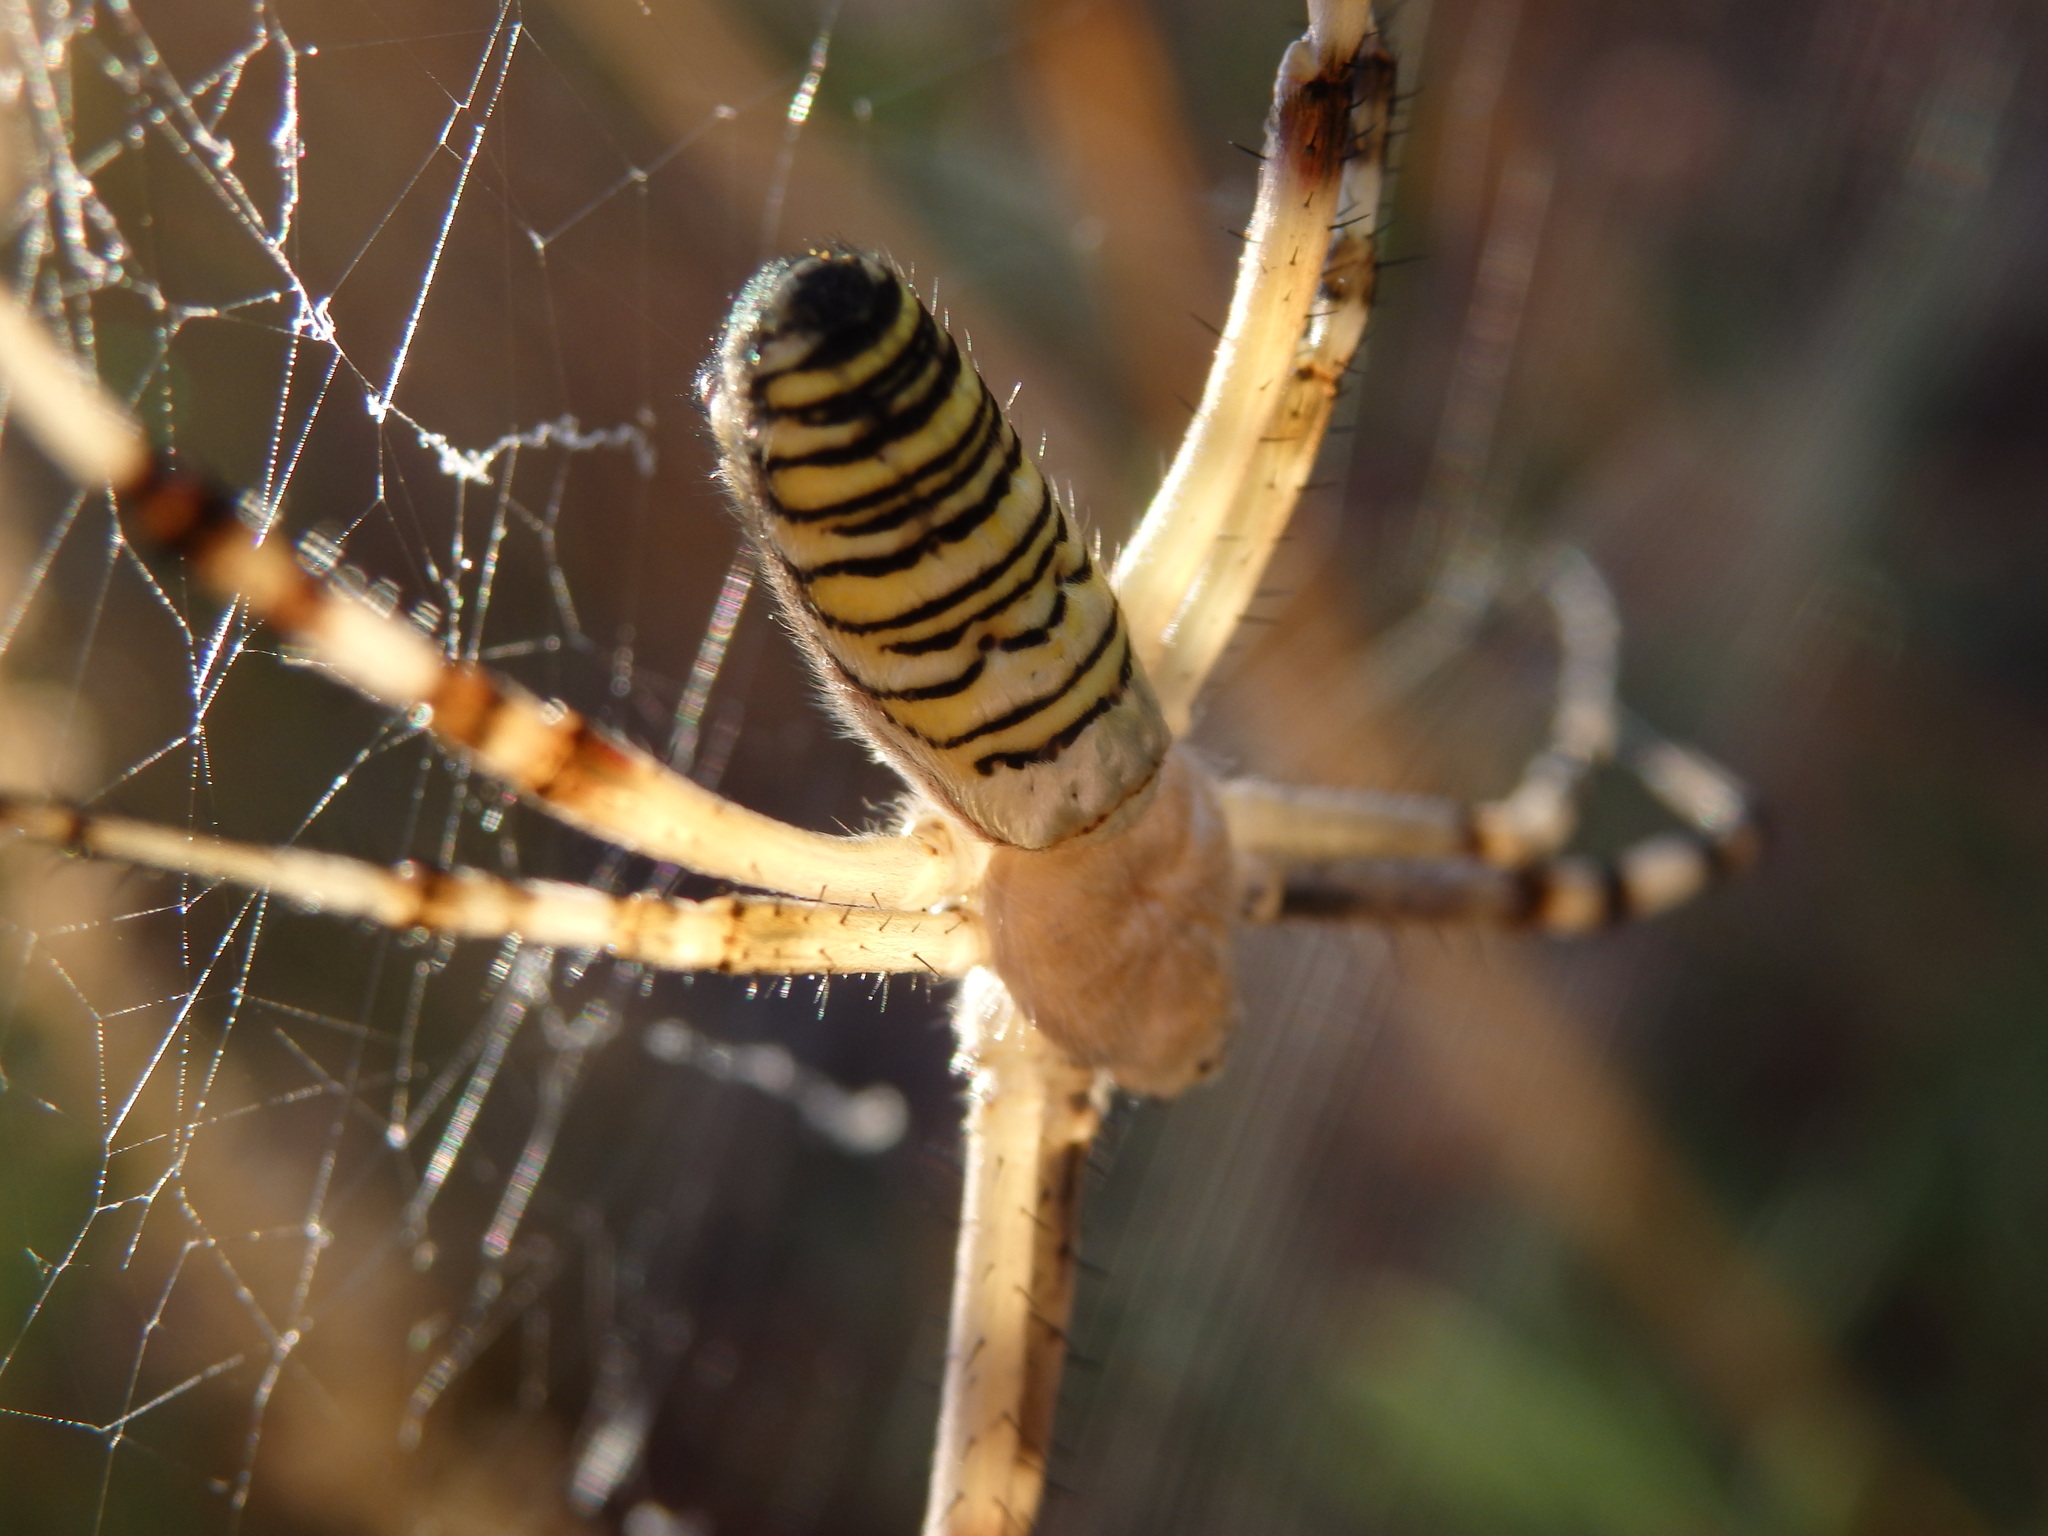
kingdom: Animalia
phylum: Arthropoda
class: Arachnida
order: Araneae
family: Araneidae
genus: Argiope
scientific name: Argiope bruennichi
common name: Wasp spider
